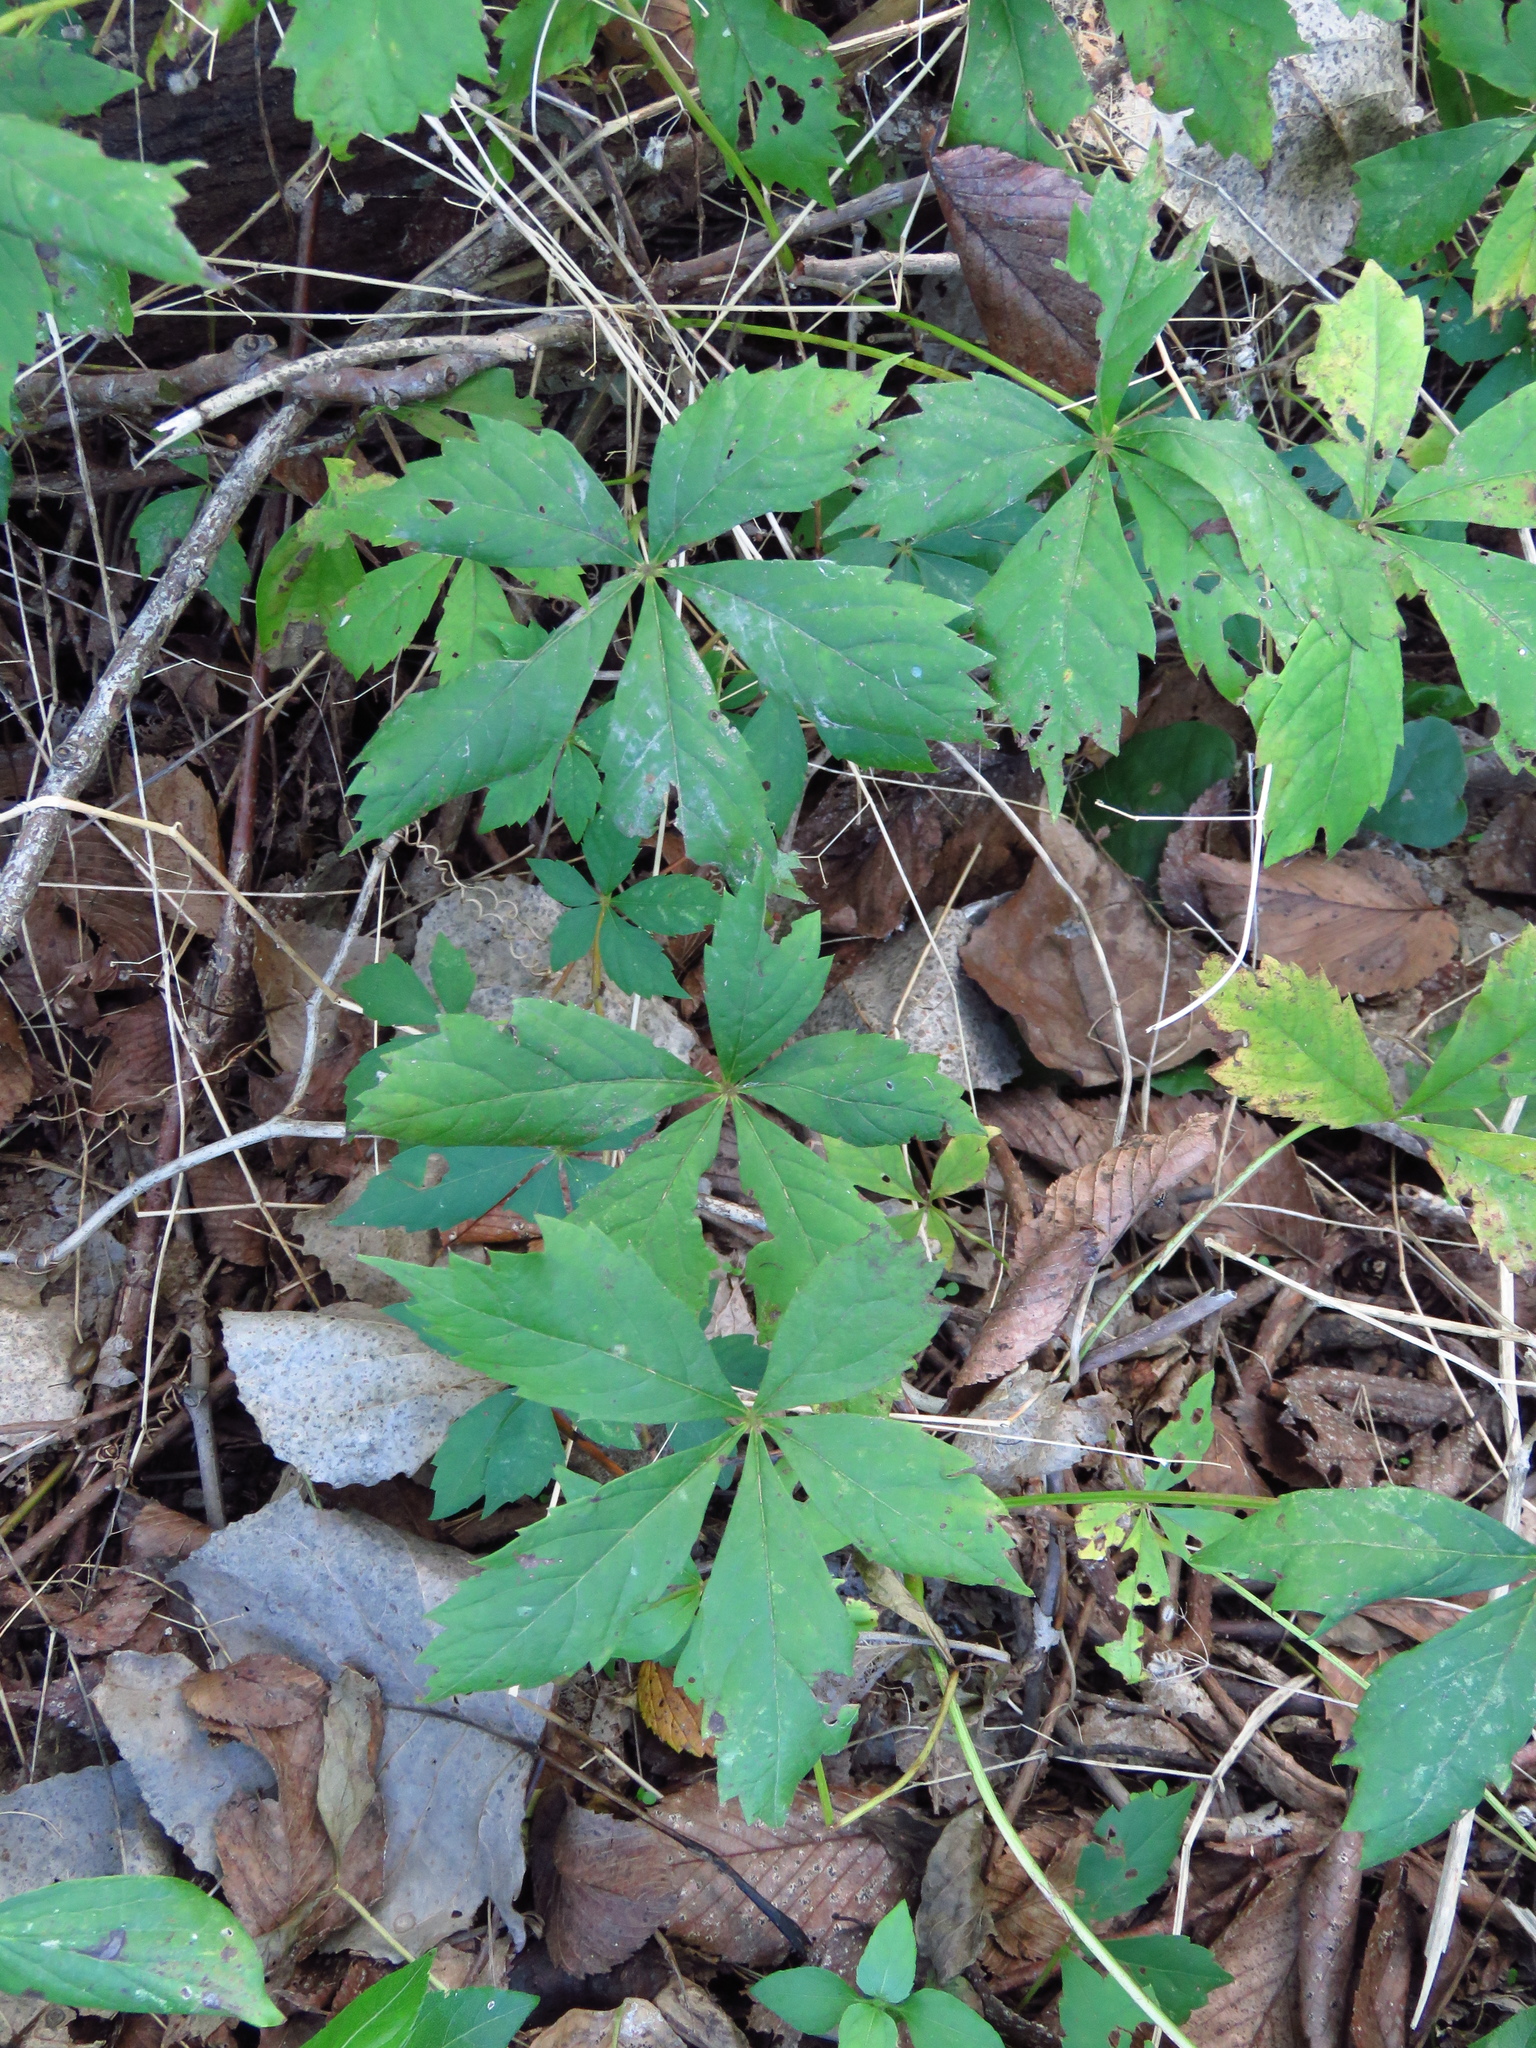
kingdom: Plantae
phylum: Tracheophyta
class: Magnoliopsida
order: Vitales
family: Vitaceae
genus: Parthenocissus
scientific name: Parthenocissus quinquefolia
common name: Virginia-creeper
